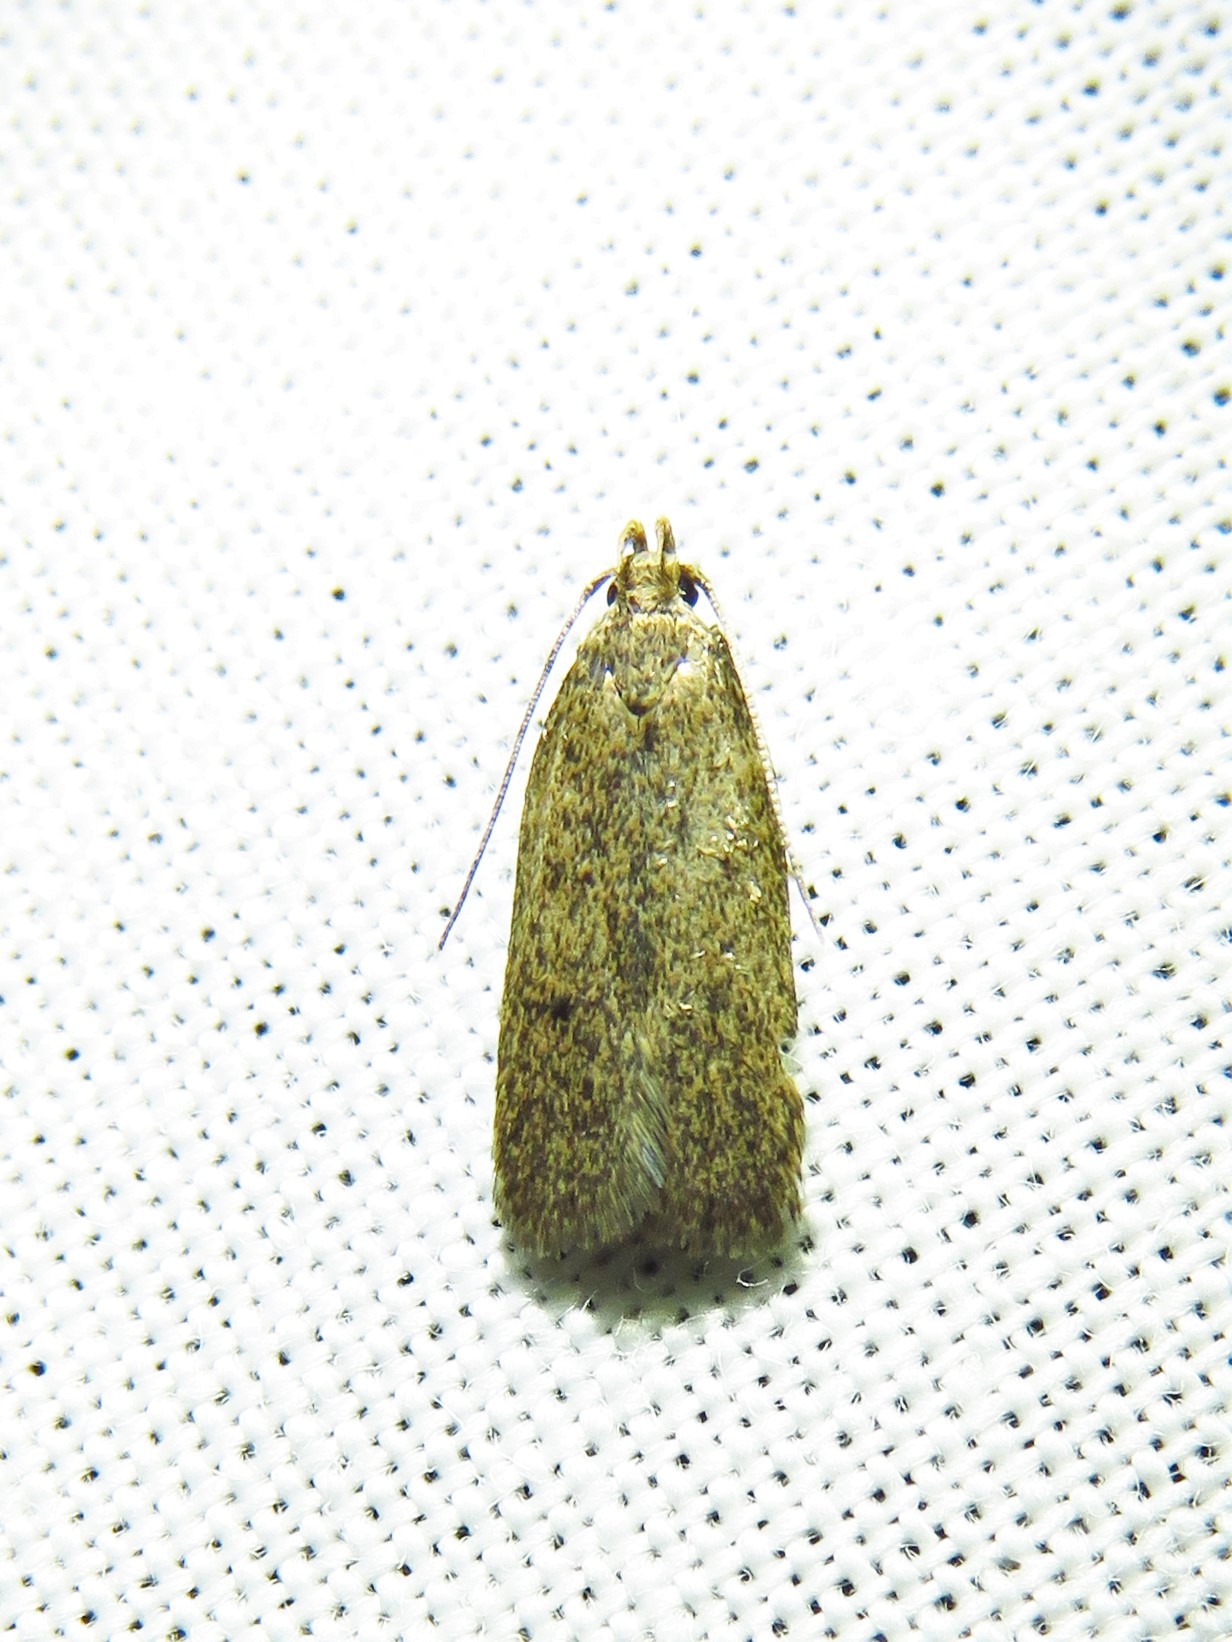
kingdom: Animalia
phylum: Arthropoda
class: Insecta
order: Lepidoptera
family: Autostichidae
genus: Glyphidocera
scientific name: Glyphidocera juniperella
